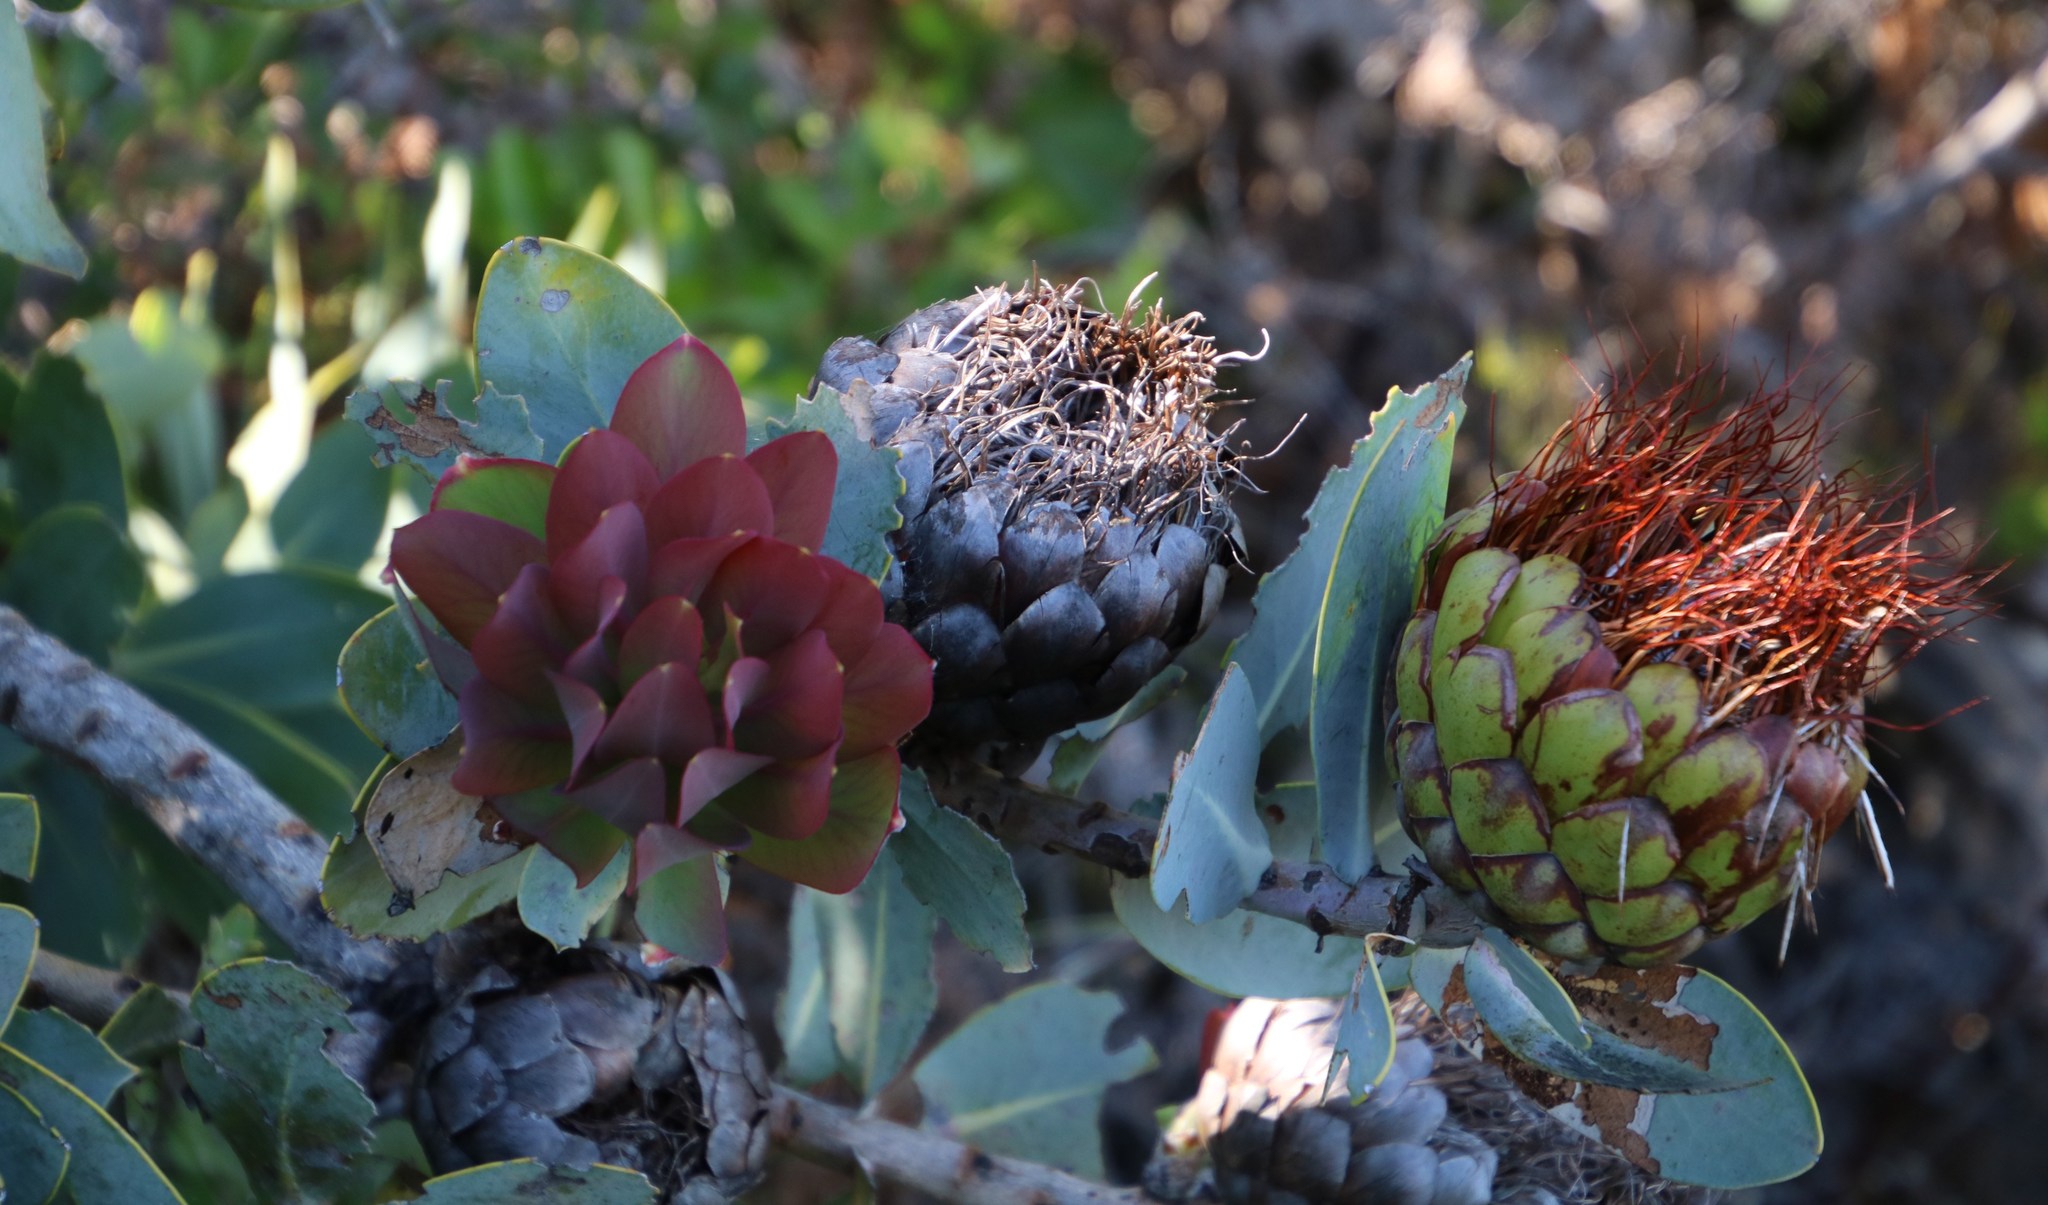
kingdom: Plantae
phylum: Tracheophyta
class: Magnoliopsida
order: Proteales
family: Proteaceae
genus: Protea
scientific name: Protea nitida
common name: Tree protea
